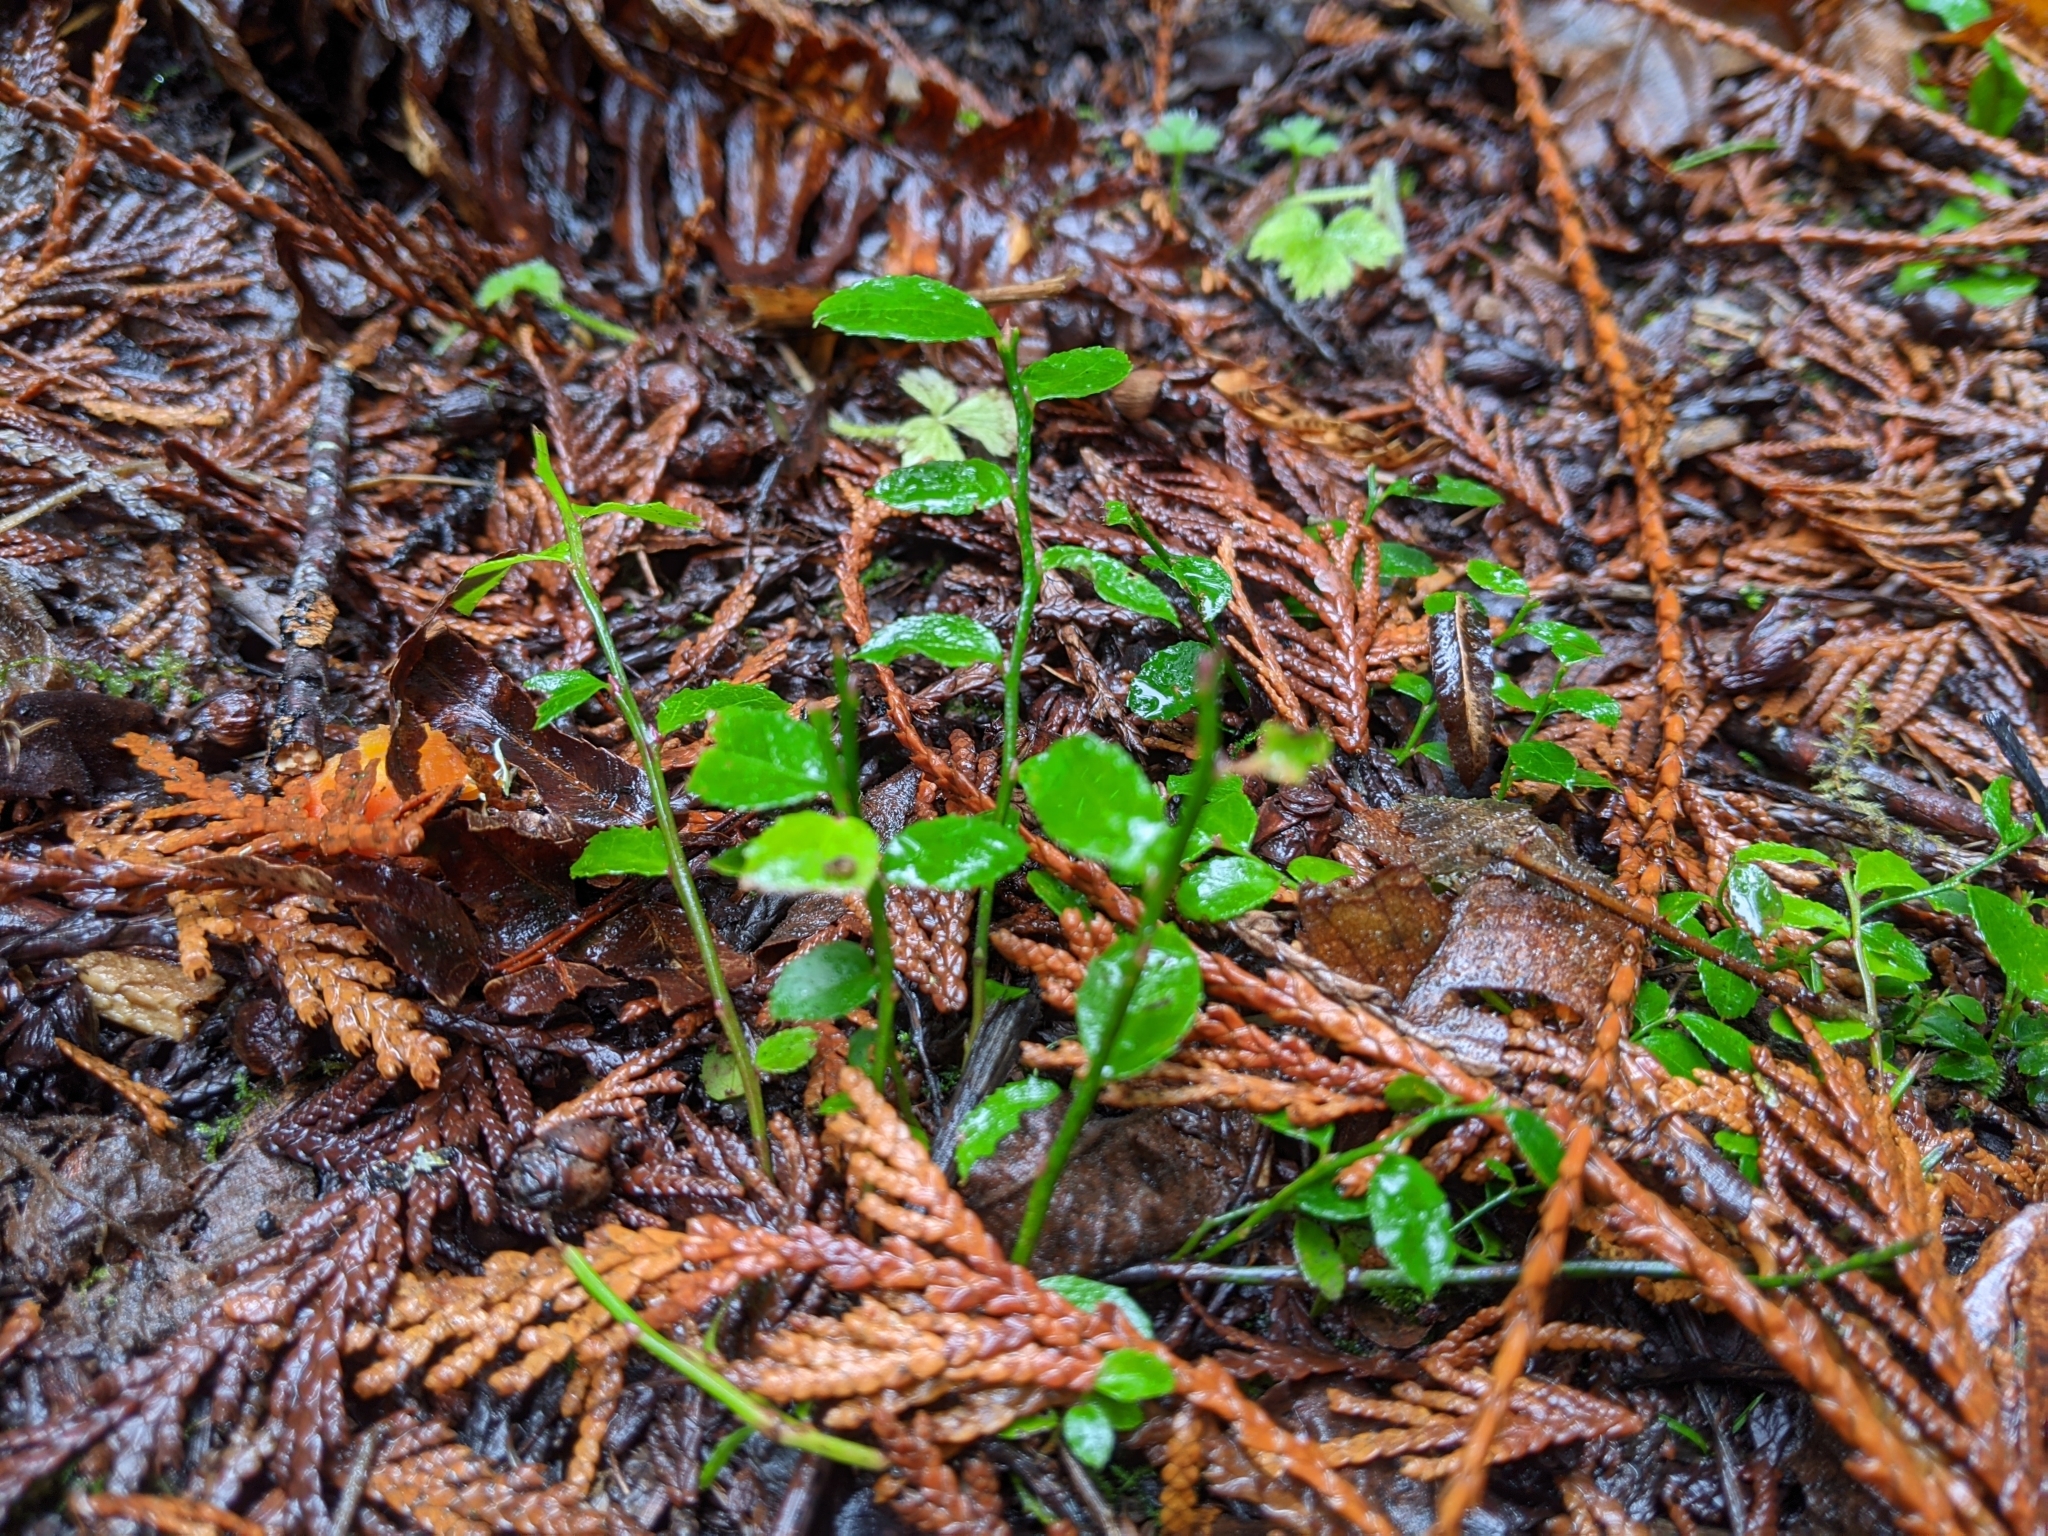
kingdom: Plantae
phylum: Tracheophyta
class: Magnoliopsida
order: Ericales
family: Ericaceae
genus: Vaccinium
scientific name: Vaccinium parvifolium
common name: Red-huckleberry
